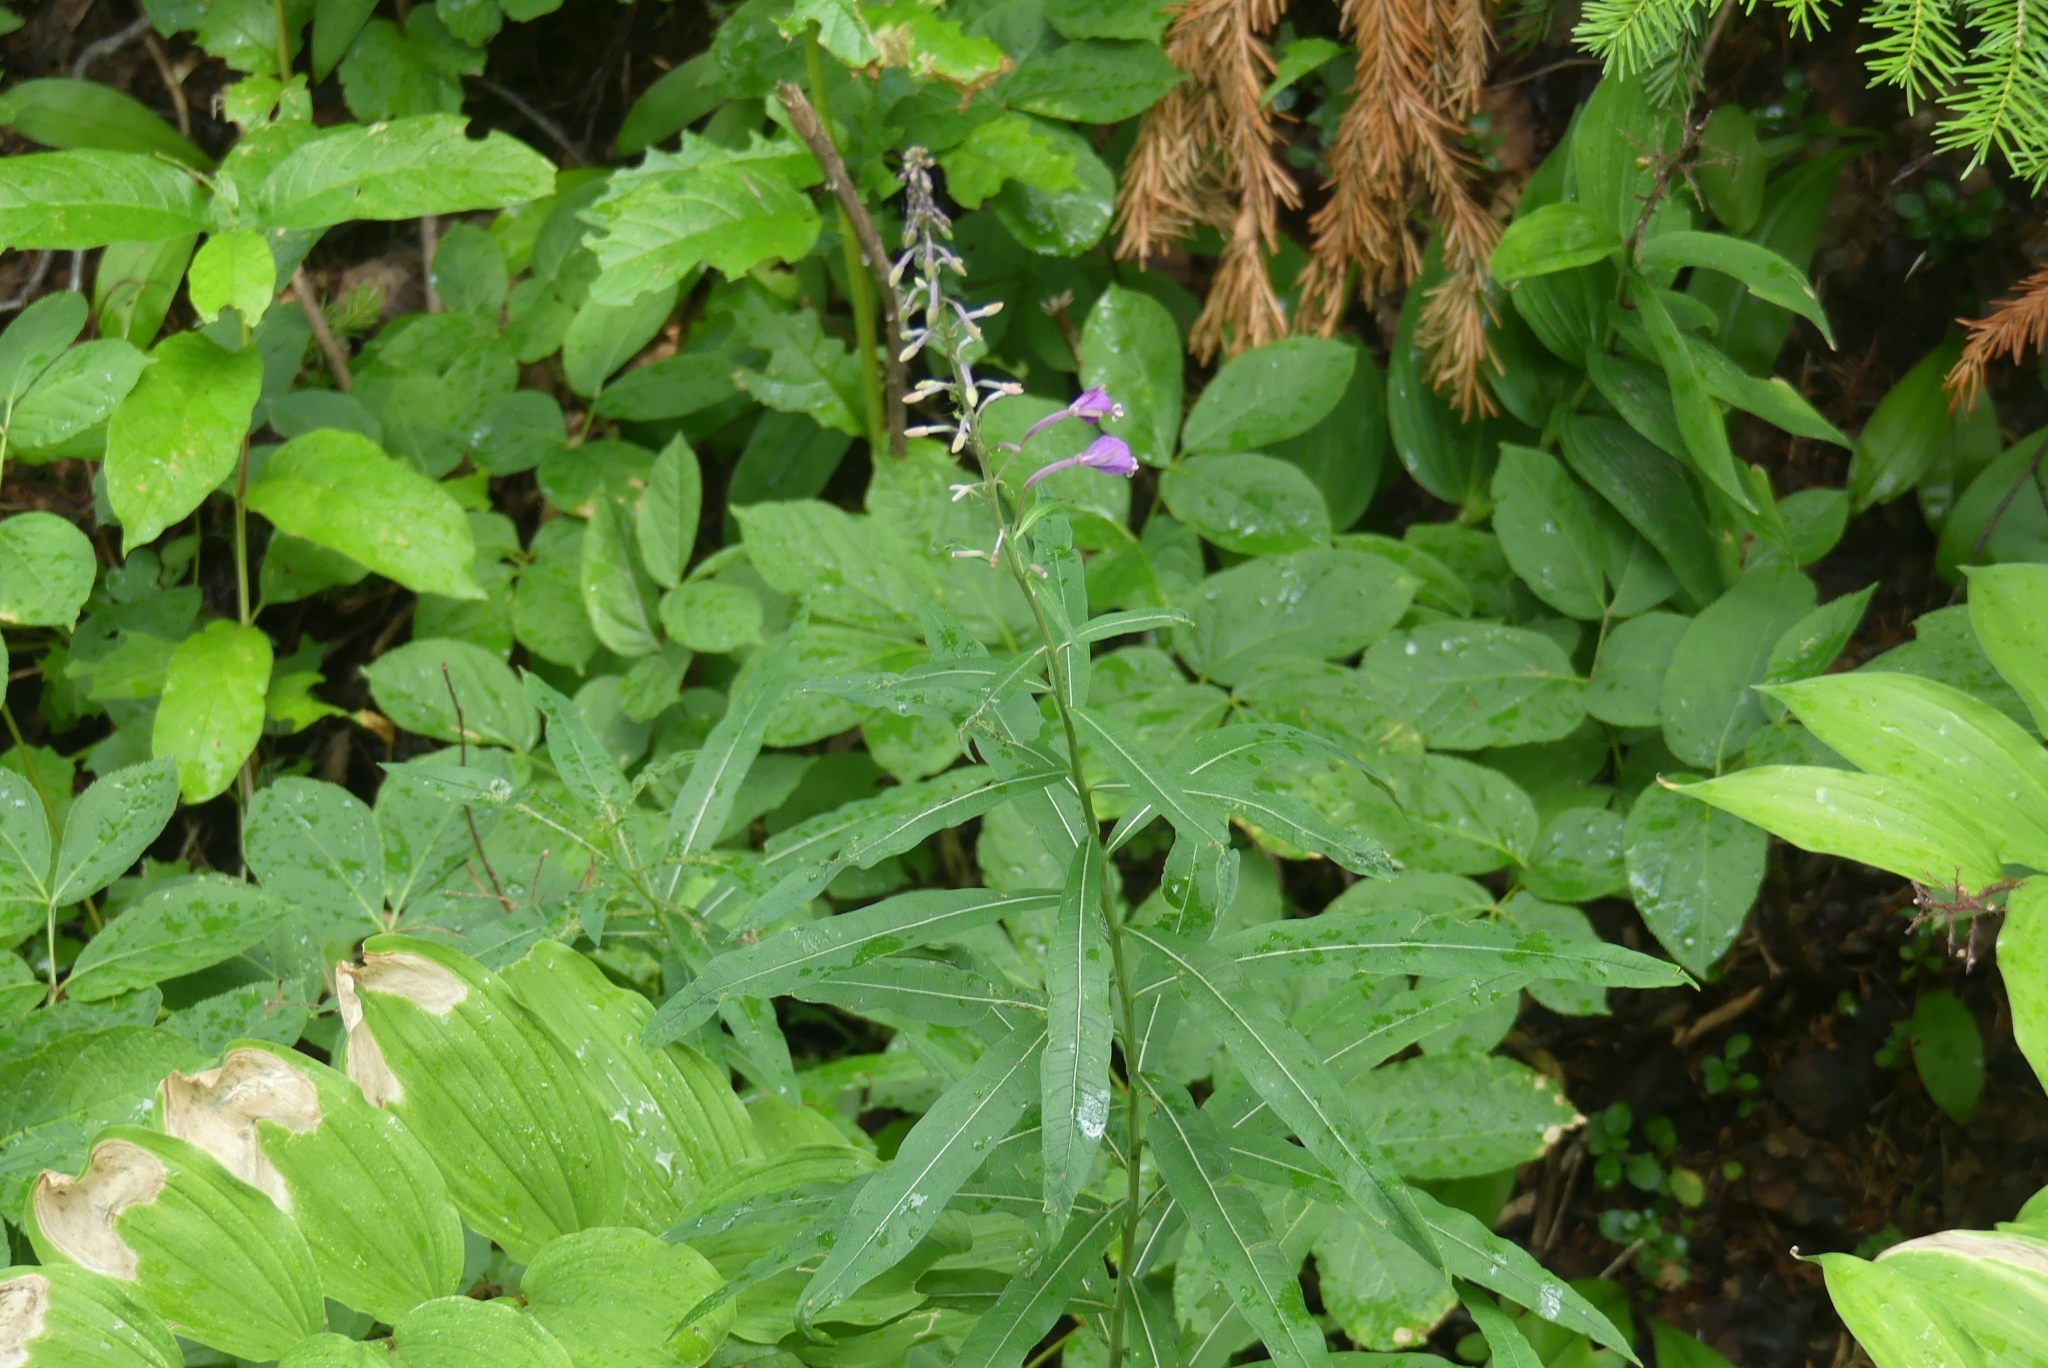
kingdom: Plantae
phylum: Tracheophyta
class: Magnoliopsida
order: Myrtales
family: Onagraceae
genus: Chamaenerion
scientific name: Chamaenerion angustifolium
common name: Fireweed
